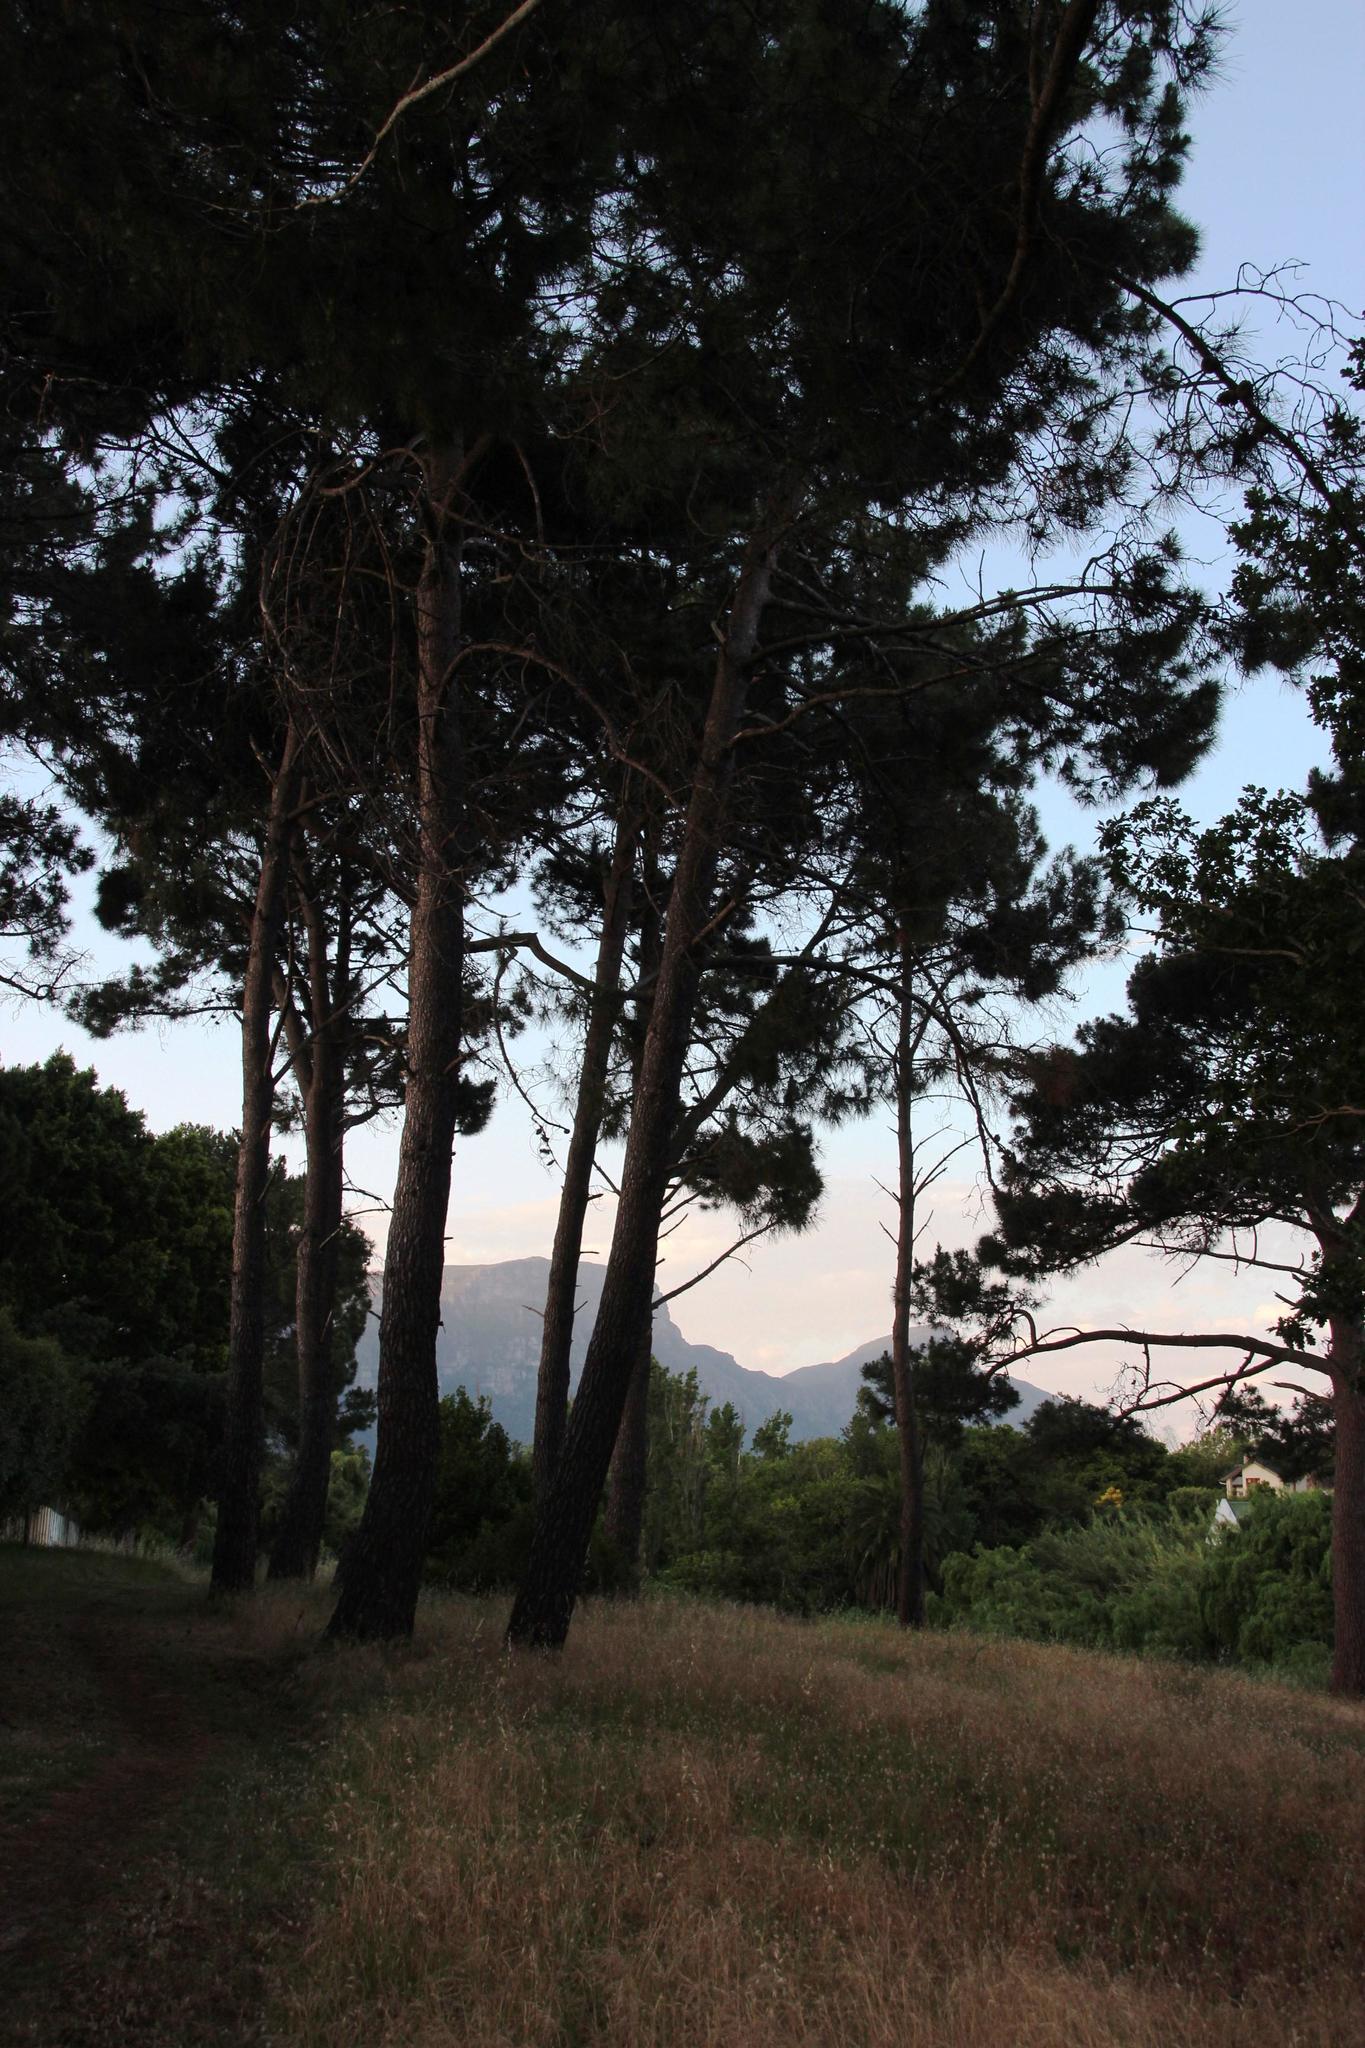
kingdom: Plantae
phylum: Tracheophyta
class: Pinopsida
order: Pinales
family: Pinaceae
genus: Pinus
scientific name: Pinus pinaster
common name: Maritime pine
